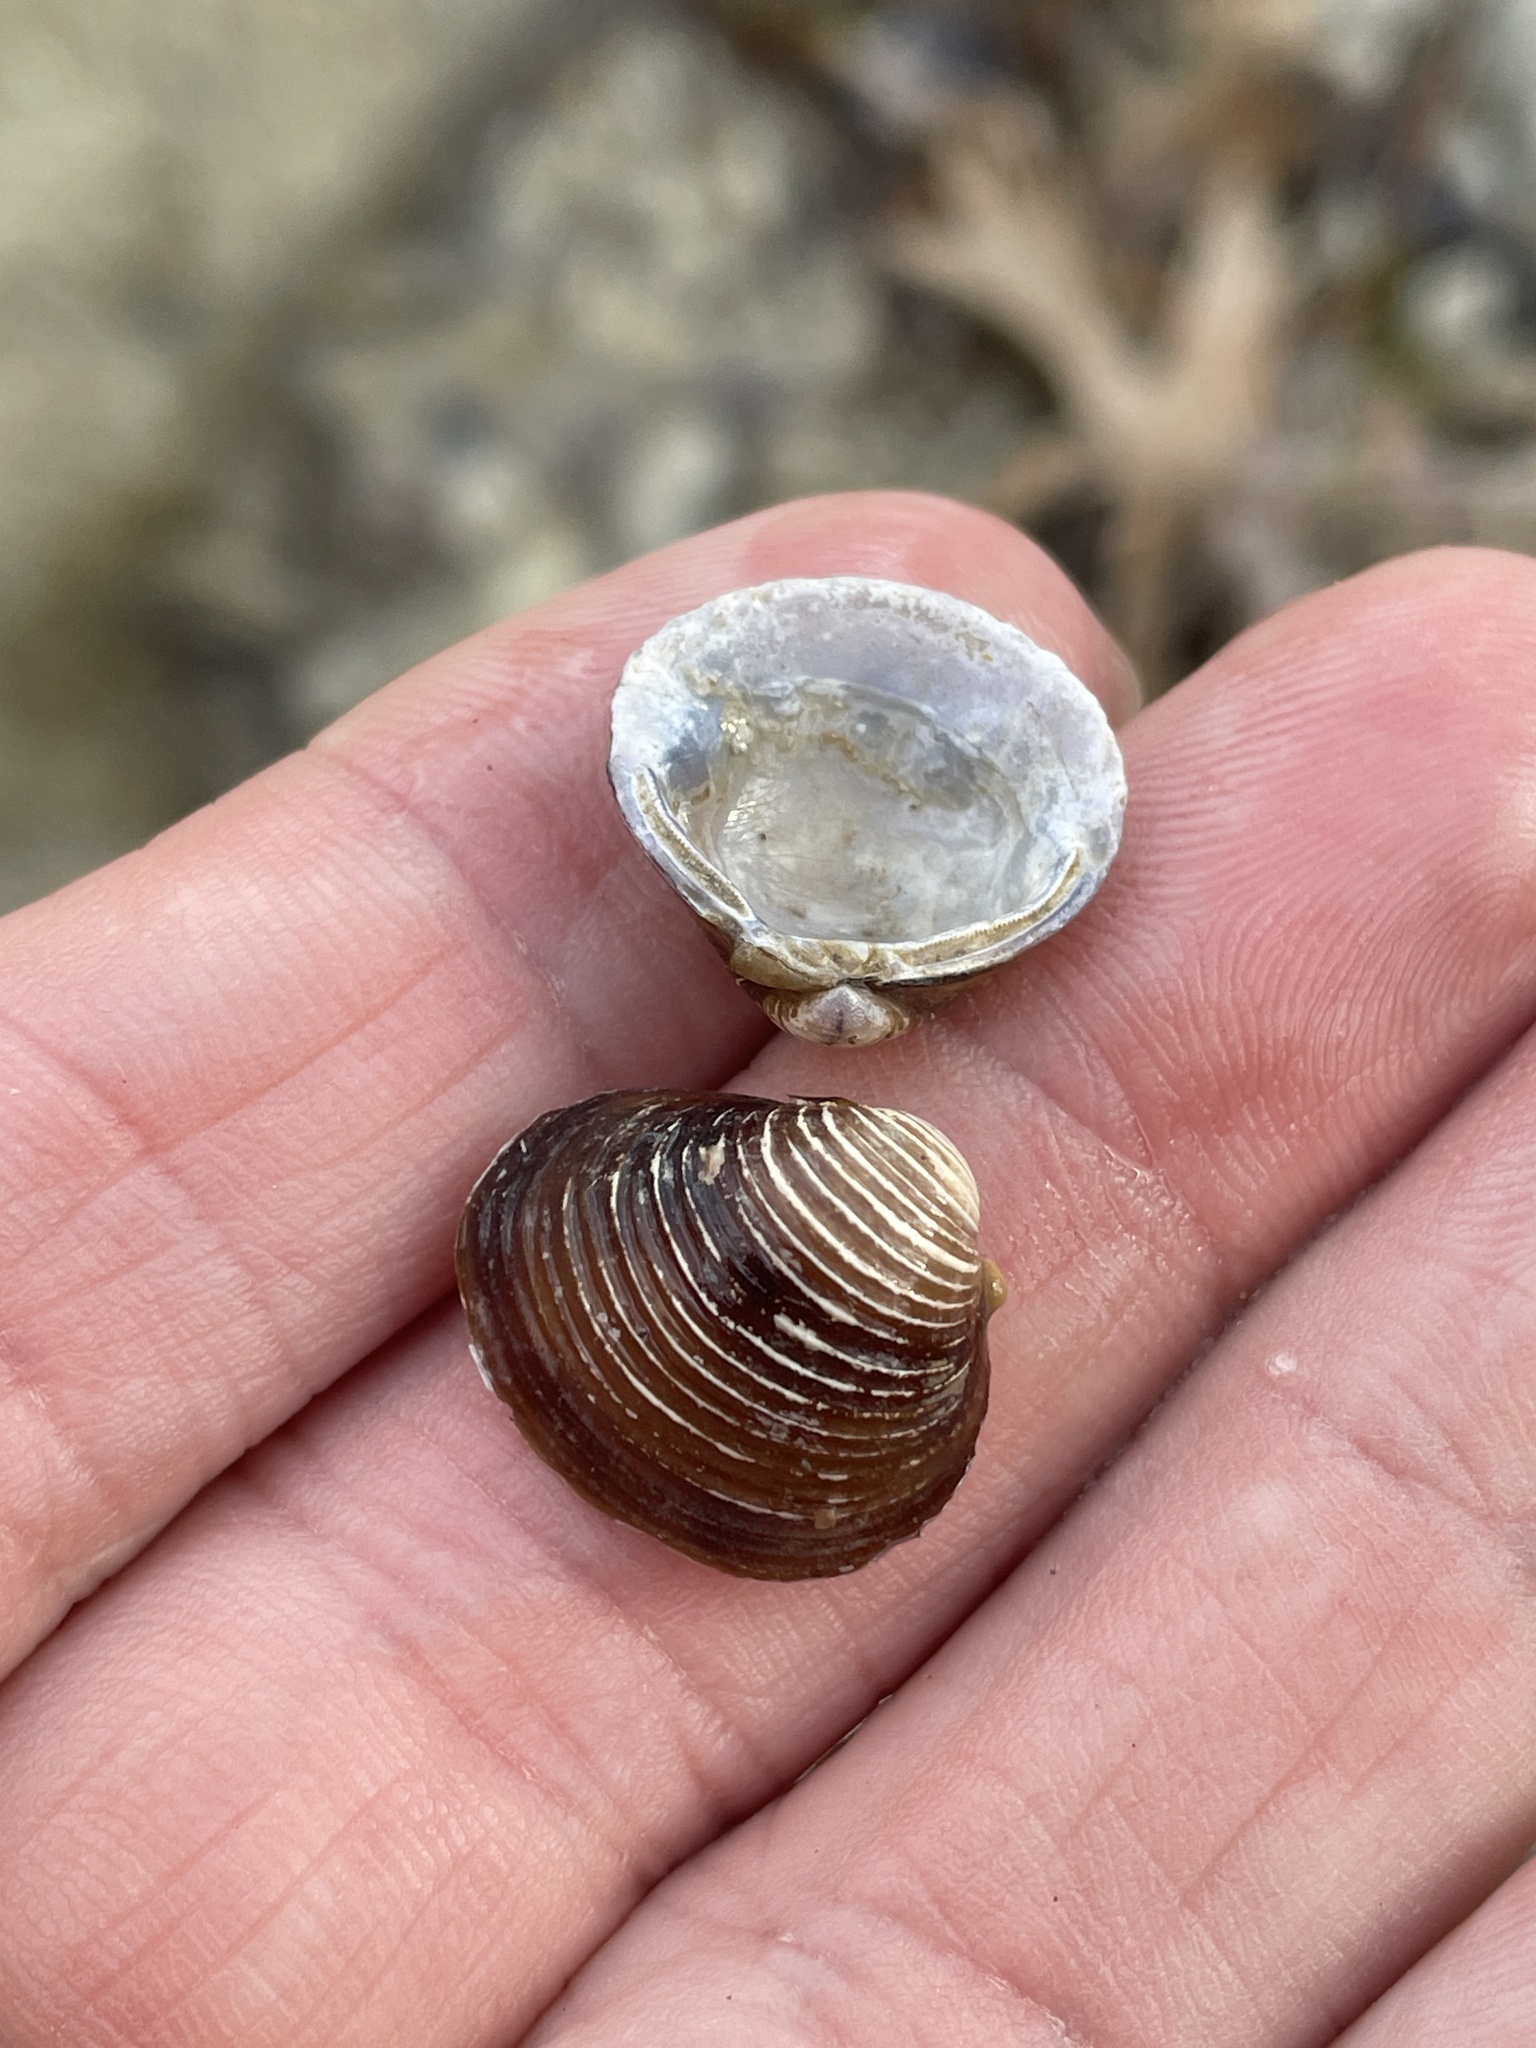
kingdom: Animalia
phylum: Mollusca
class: Bivalvia
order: Venerida
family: Cyrenidae
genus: Corbicula
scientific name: Corbicula fluminea
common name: Asian clam
